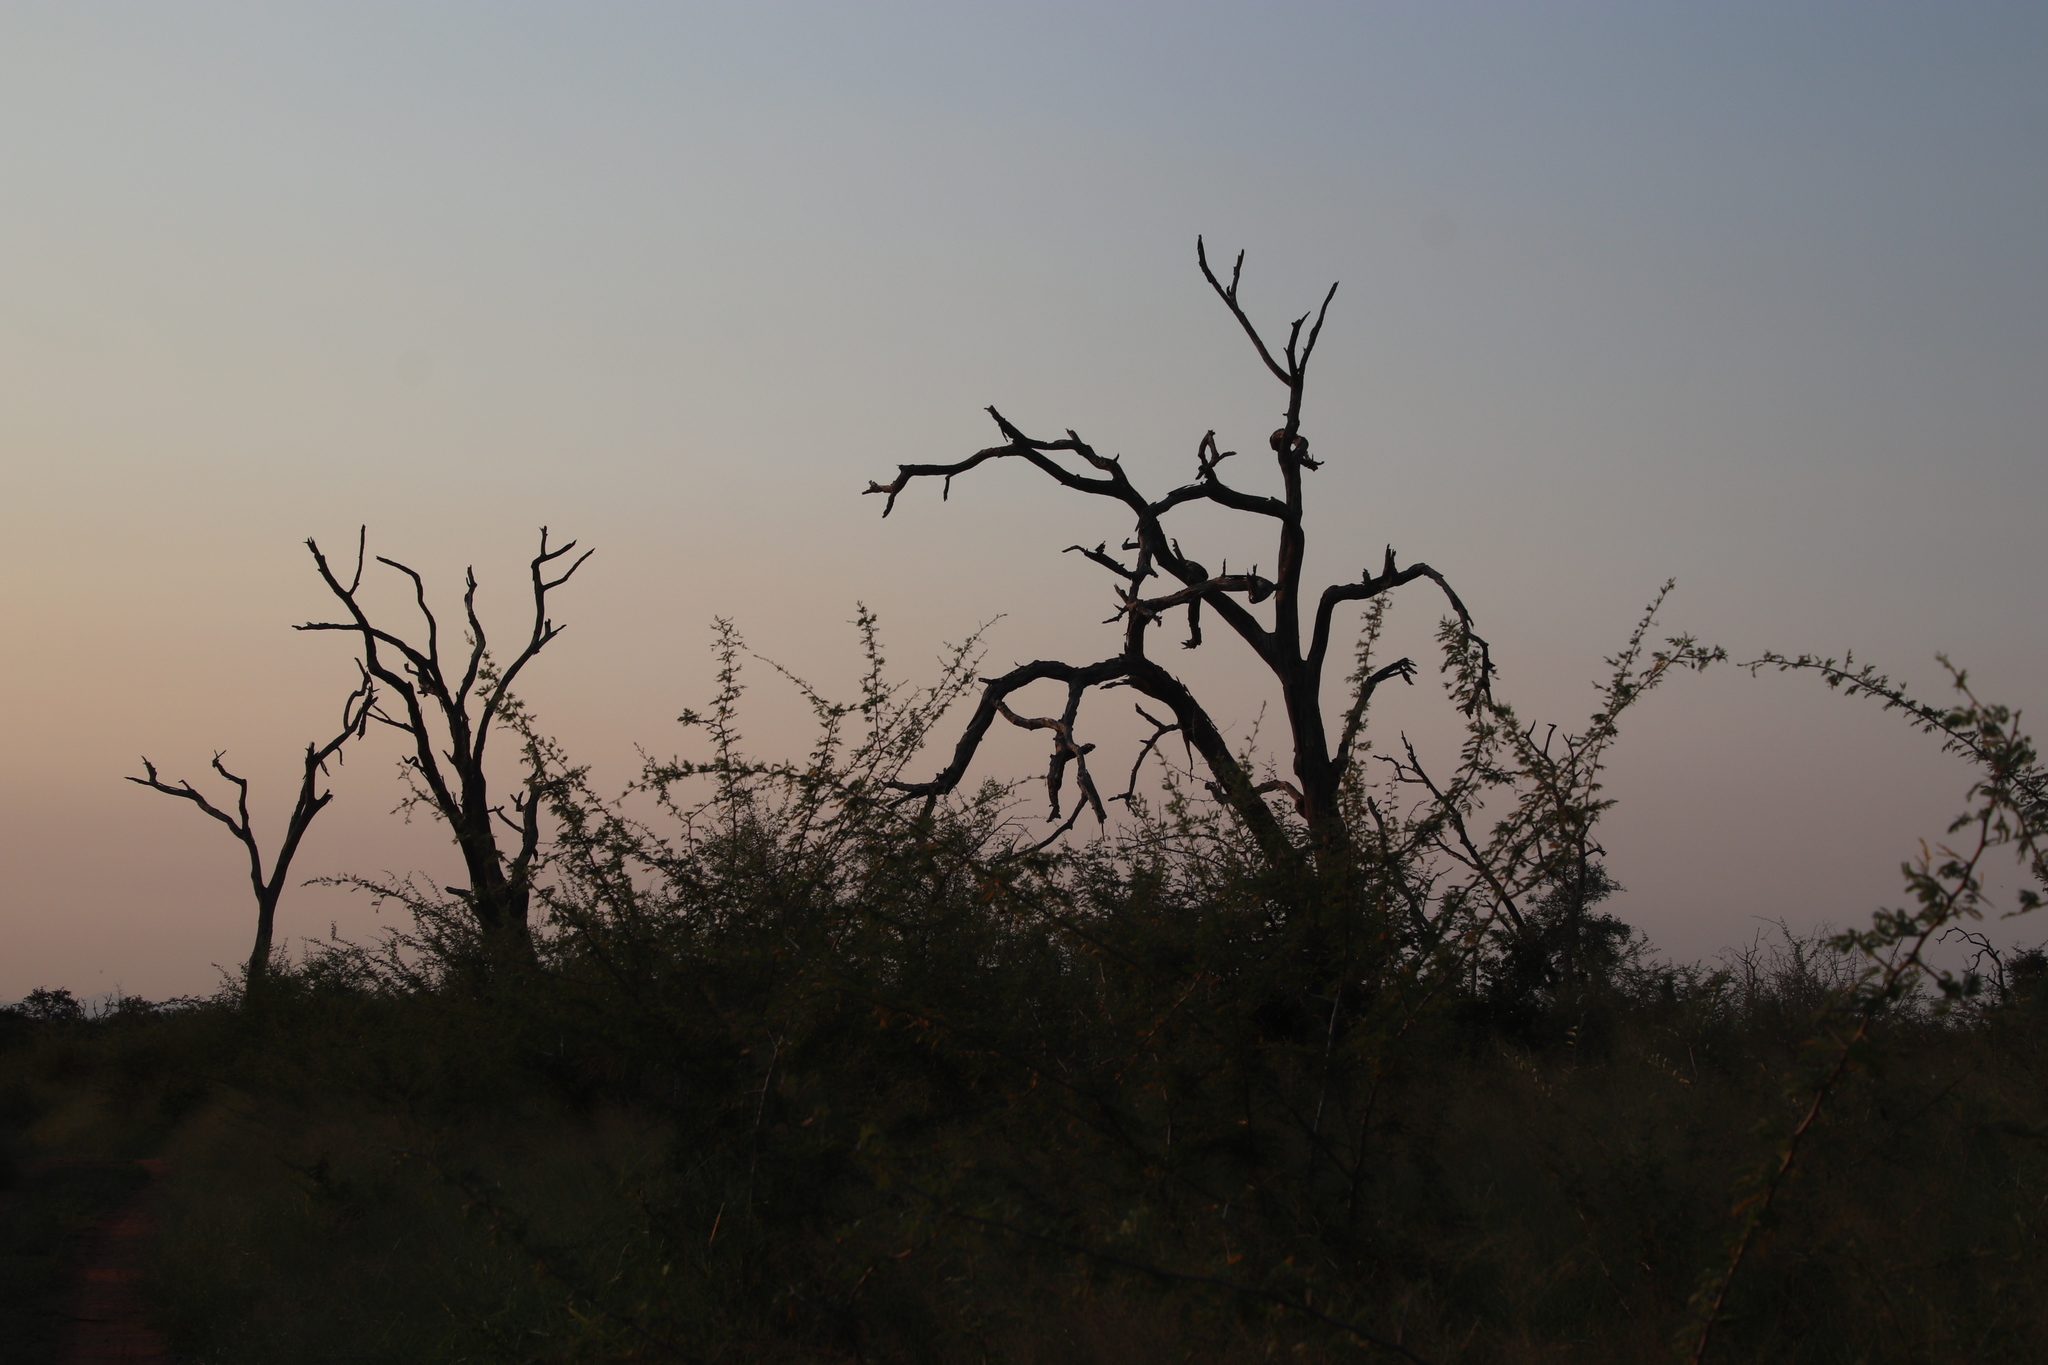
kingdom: Animalia
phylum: Chordata
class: Aves
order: Passeriformes
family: Buphagidae
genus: Buphagus
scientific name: Buphagus erythrorhynchus
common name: Red-billed oxpecker
